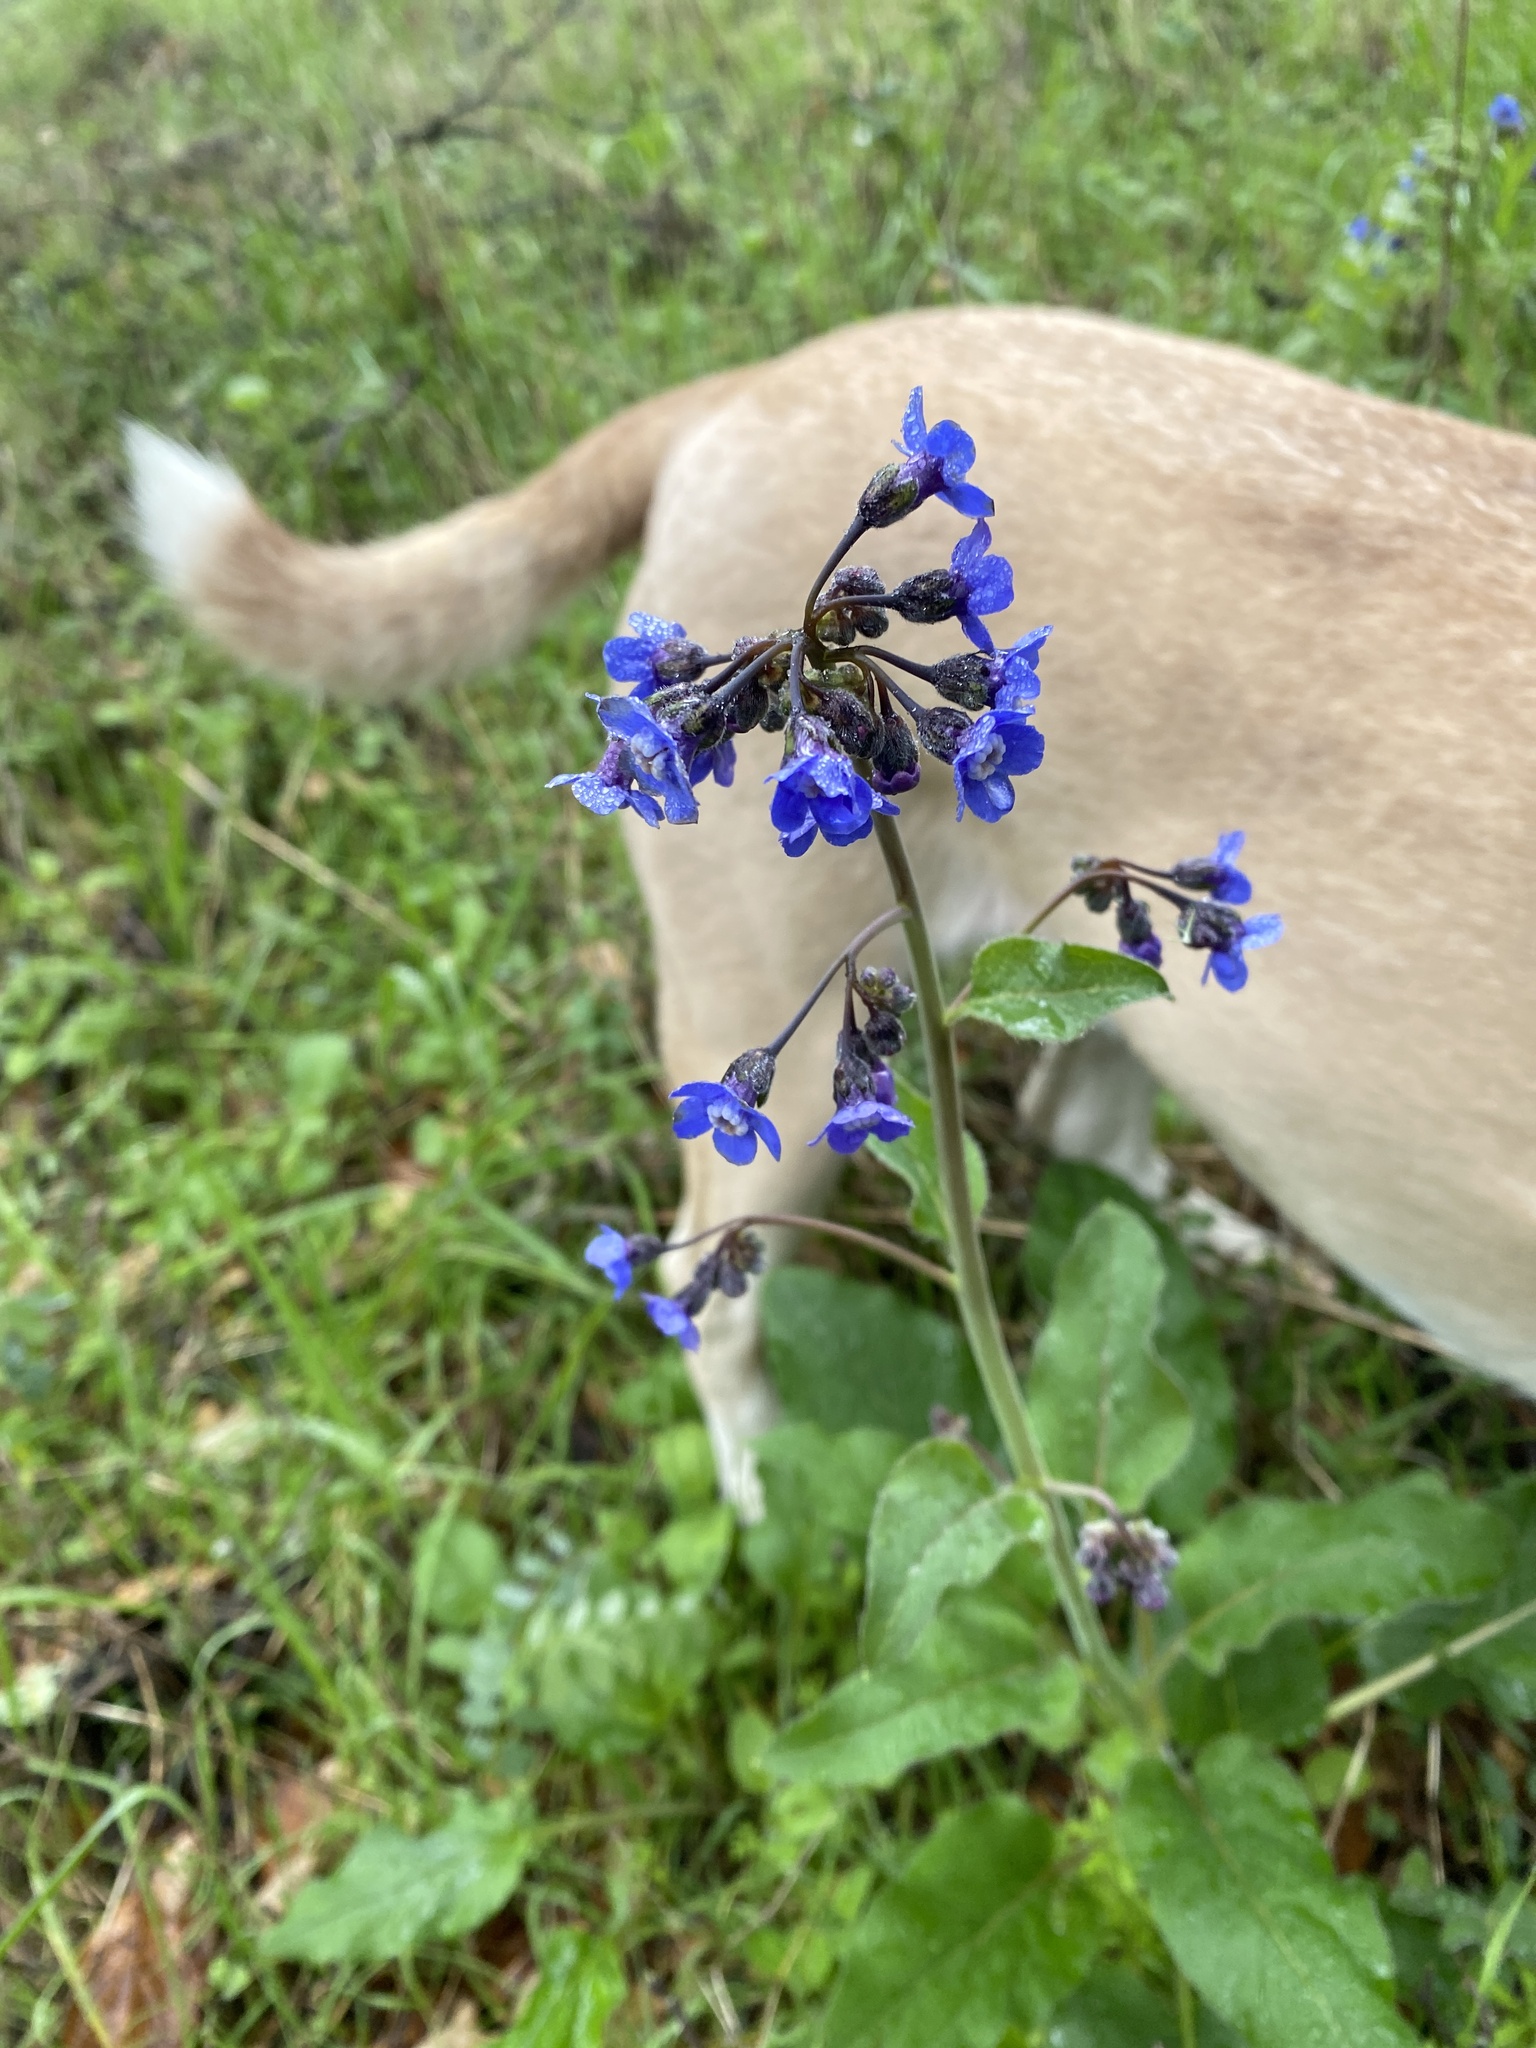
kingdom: Plantae
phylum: Tracheophyta
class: Magnoliopsida
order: Boraginales
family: Boraginaceae
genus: Adelinia
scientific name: Adelinia grande
